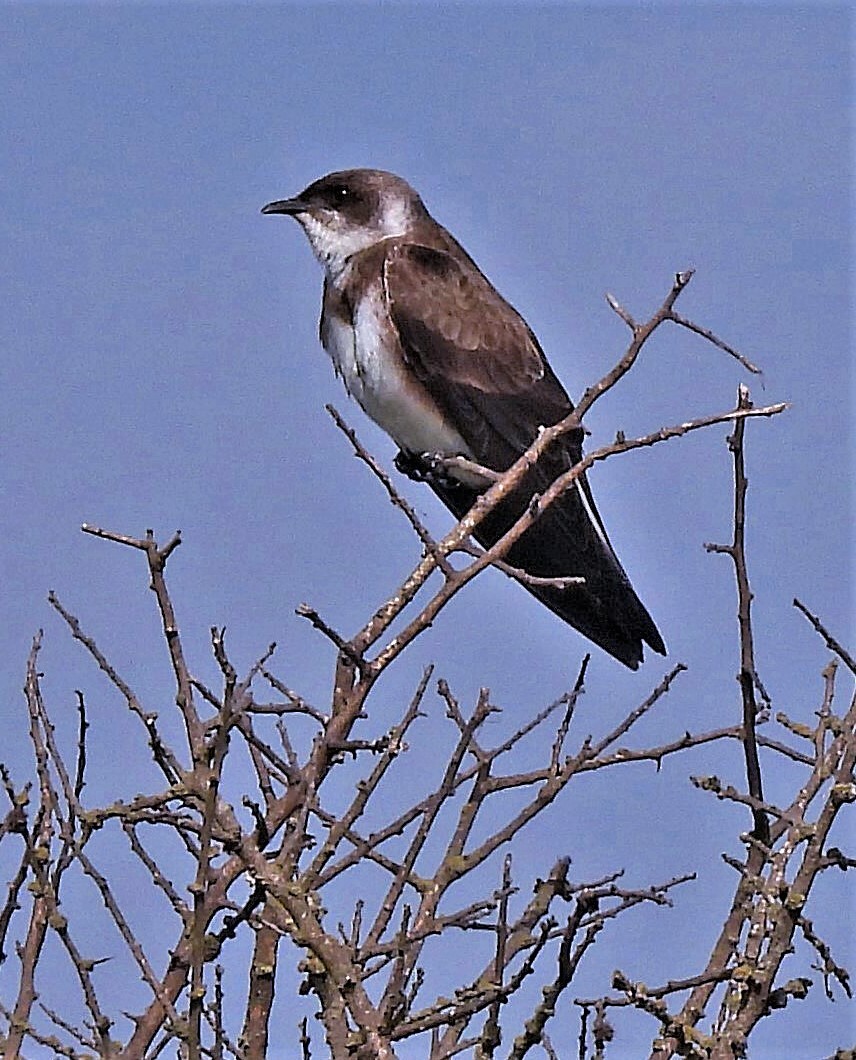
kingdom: Animalia
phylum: Chordata
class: Aves
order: Passeriformes
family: Hirundinidae
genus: Progne
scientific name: Progne tapera
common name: Brown-chested martin
